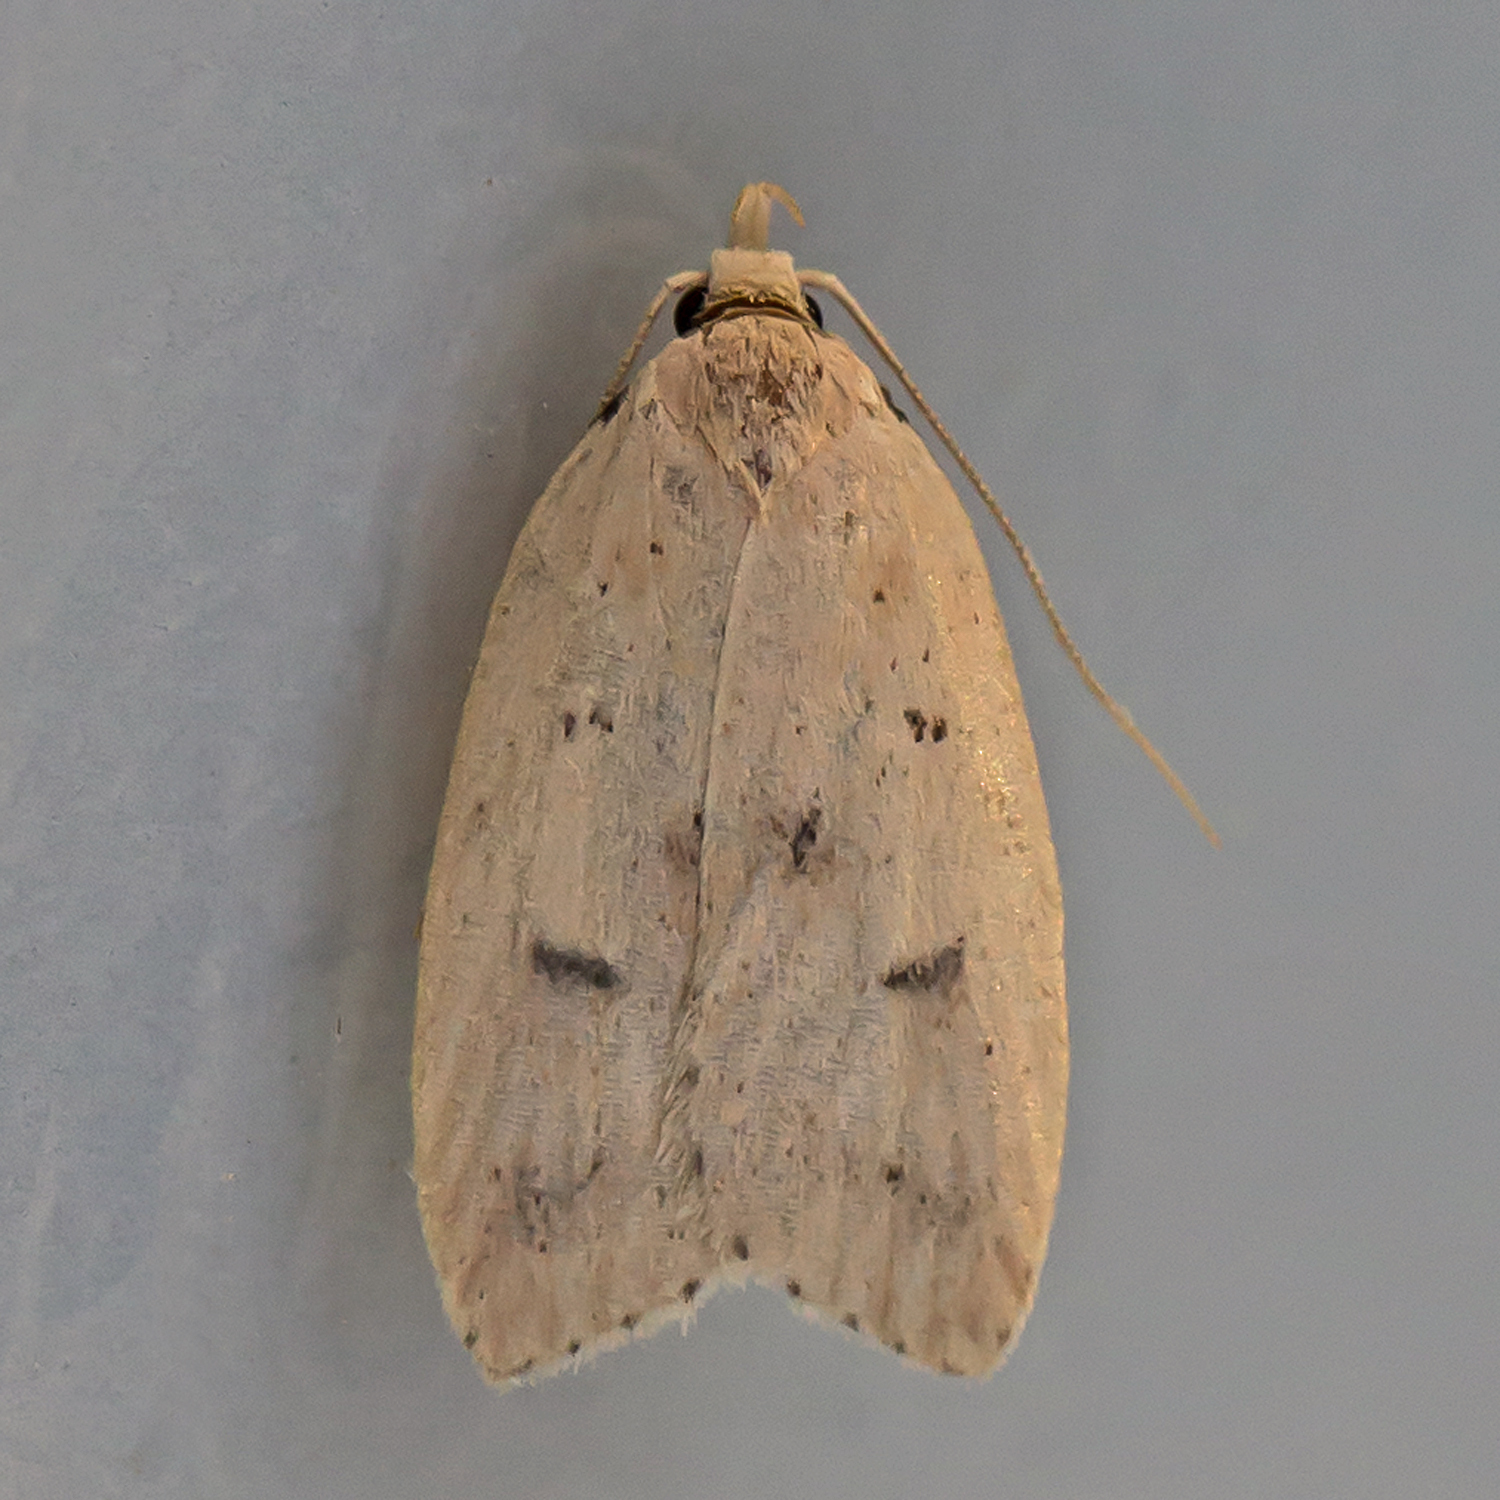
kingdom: Animalia
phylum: Arthropoda
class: Insecta
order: Lepidoptera
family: Peleopodidae
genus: Machimia
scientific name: Machimia tentoriferella
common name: Gold-striped leaftier moth
